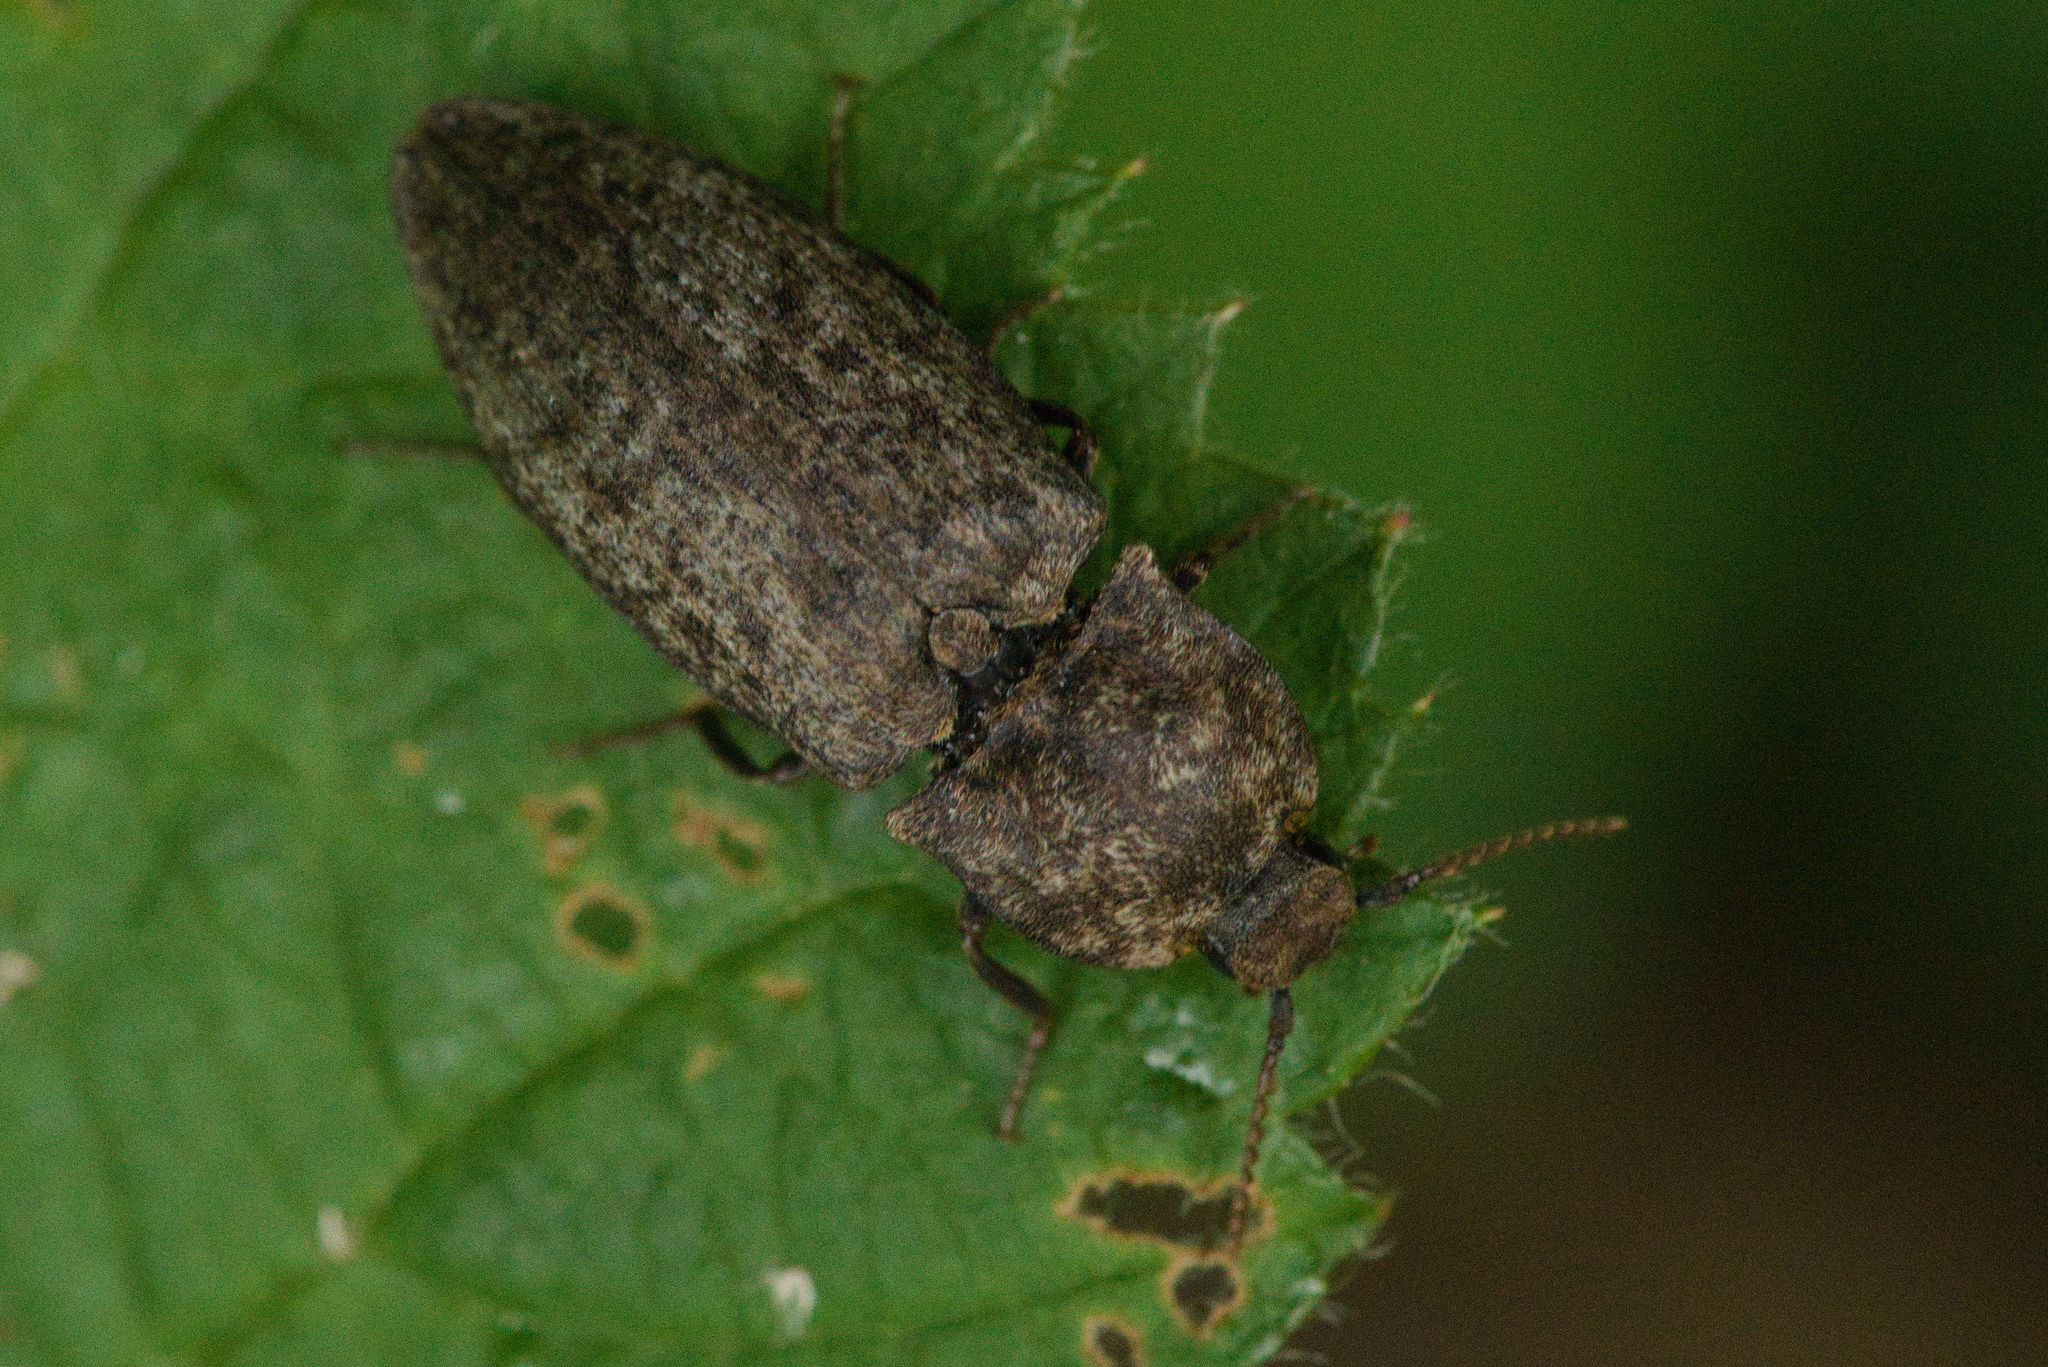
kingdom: Animalia
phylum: Arthropoda
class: Insecta
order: Coleoptera
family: Elateridae
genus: Agrypnus
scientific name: Agrypnus murinus
